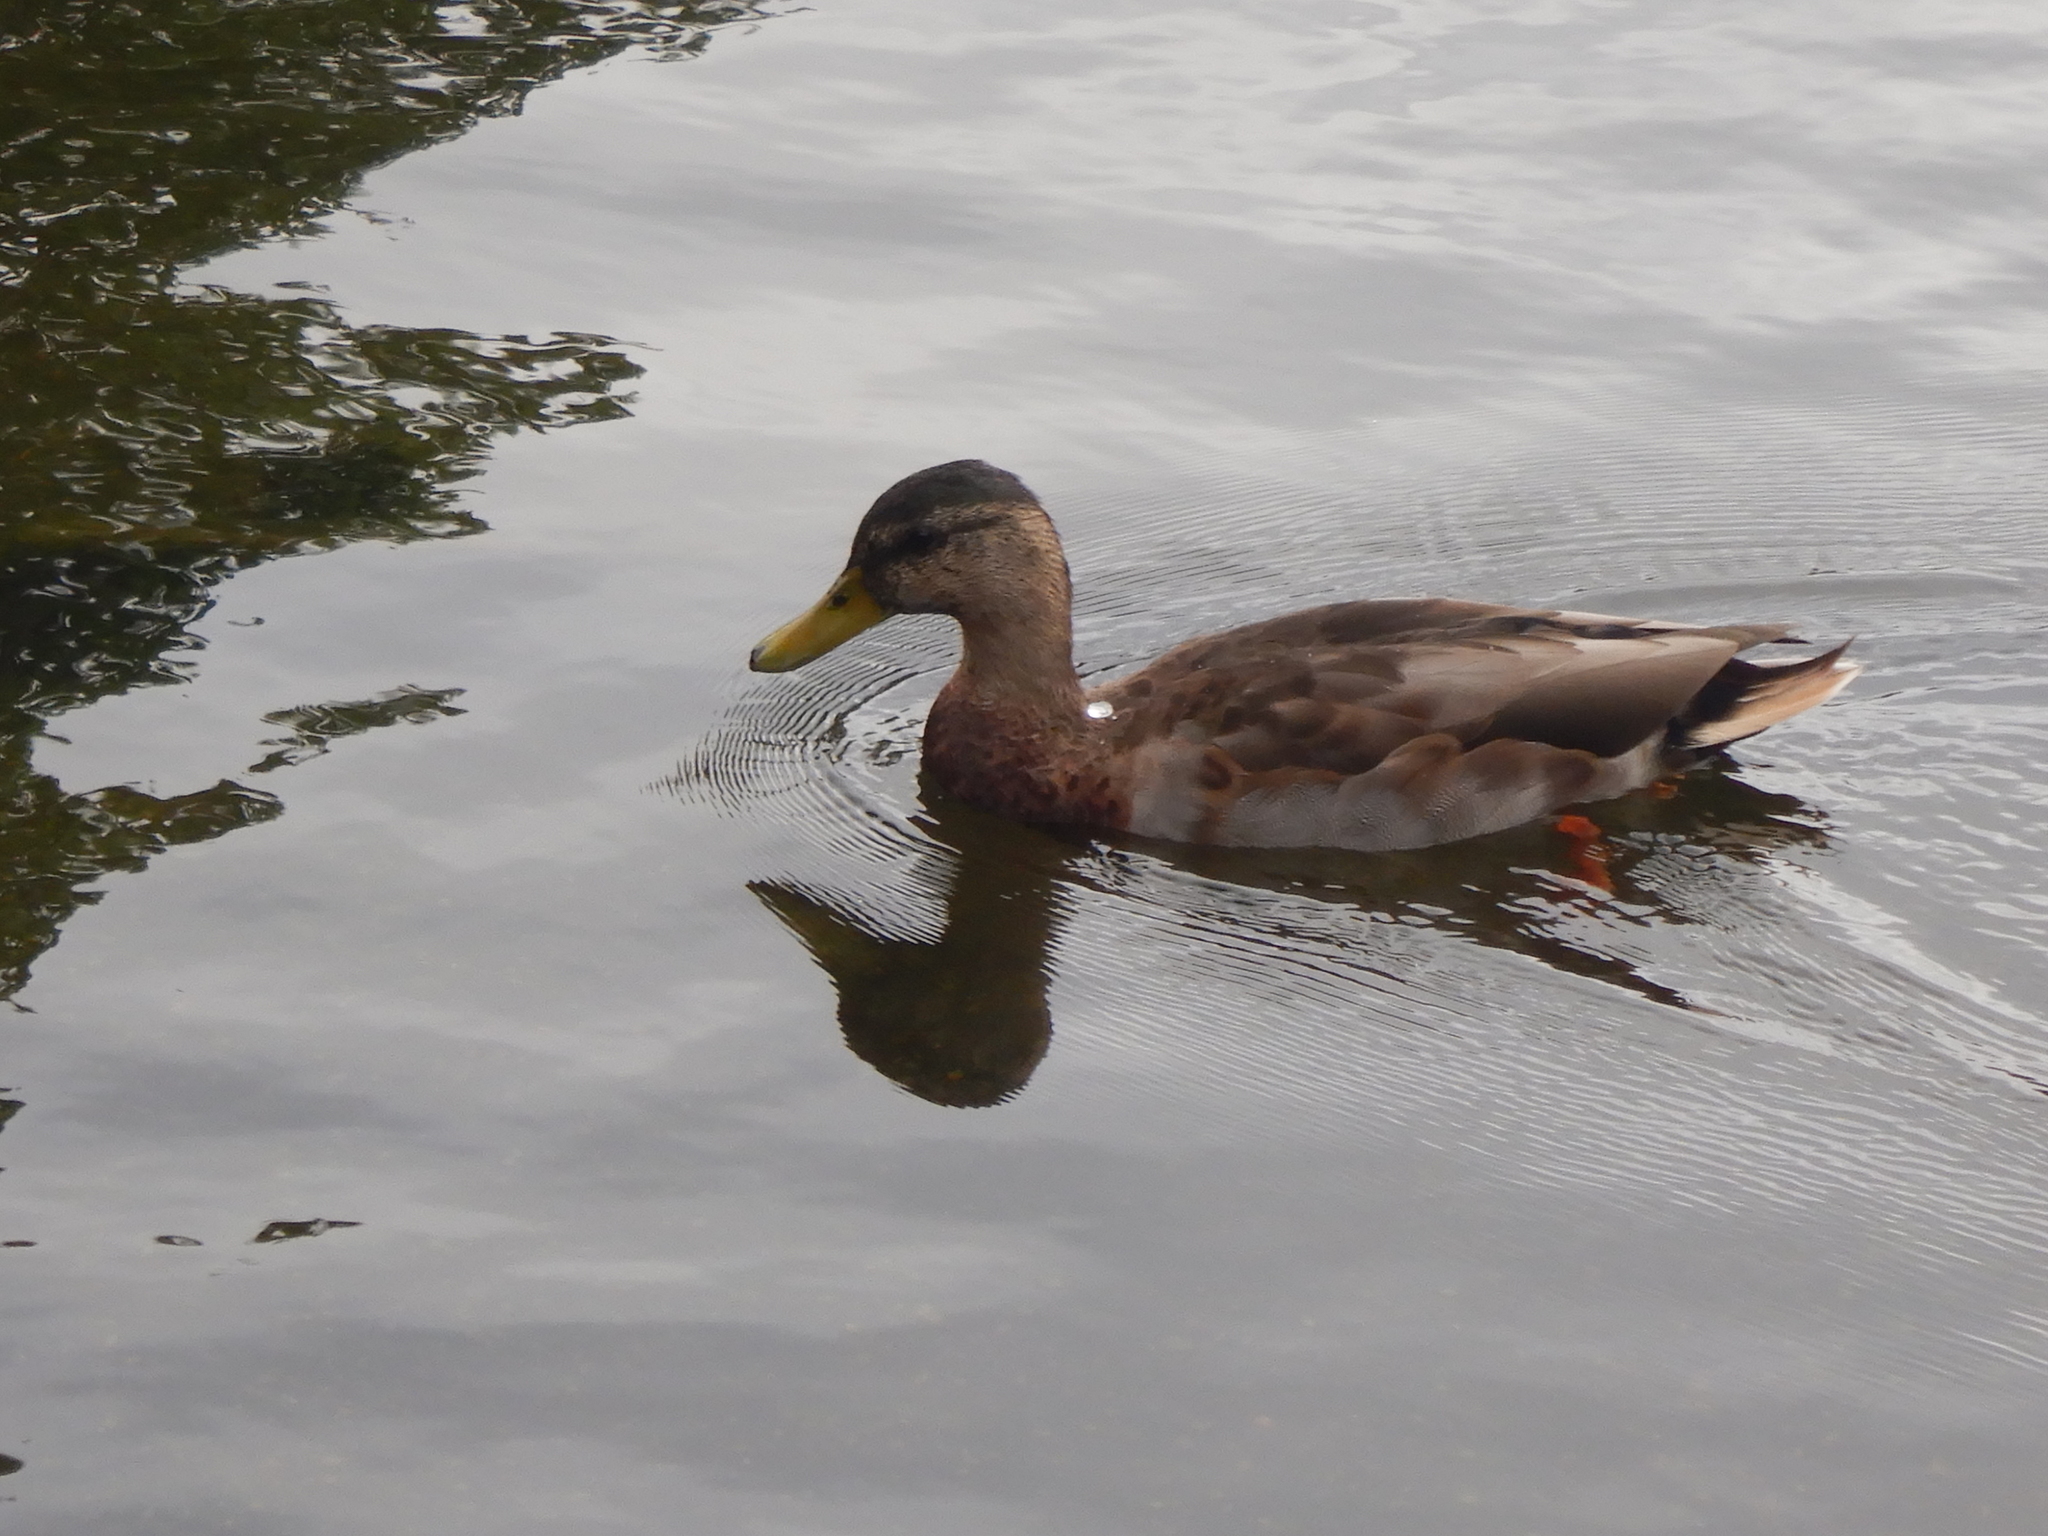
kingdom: Animalia
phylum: Chordata
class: Aves
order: Anseriformes
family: Anatidae
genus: Anas
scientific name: Anas platyrhynchos
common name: Mallard
